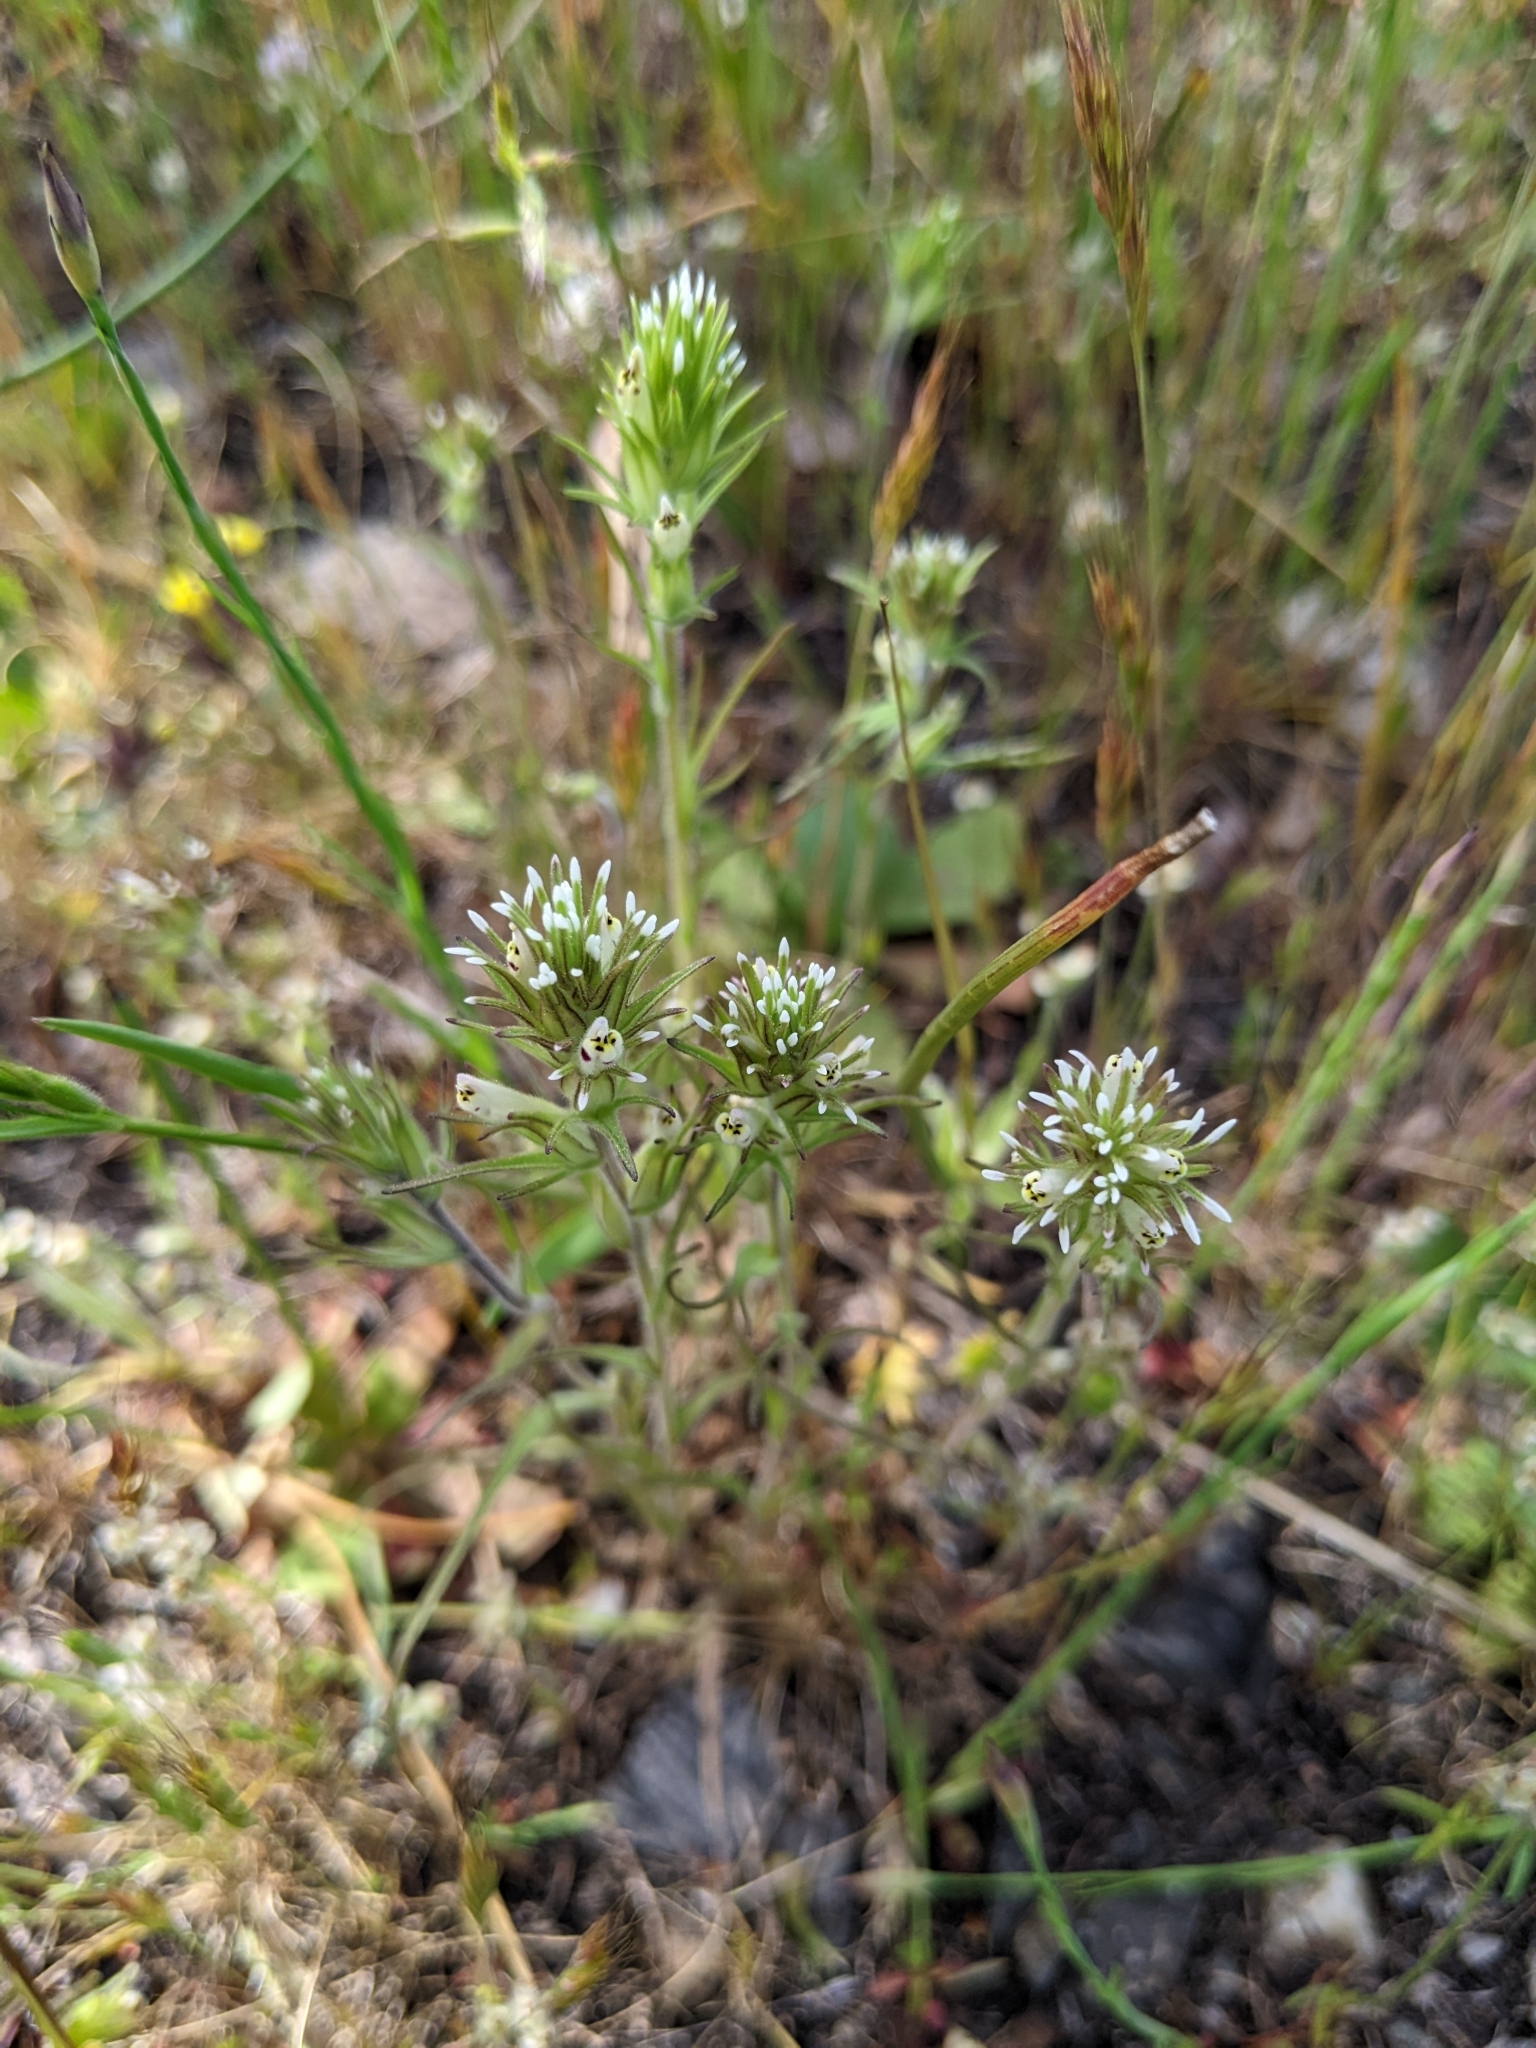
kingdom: Plantae
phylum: Tracheophyta
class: Magnoliopsida
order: Lamiales
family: Orobanchaceae
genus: Castilleja
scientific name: Castilleja attenuata
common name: Valley tassels
